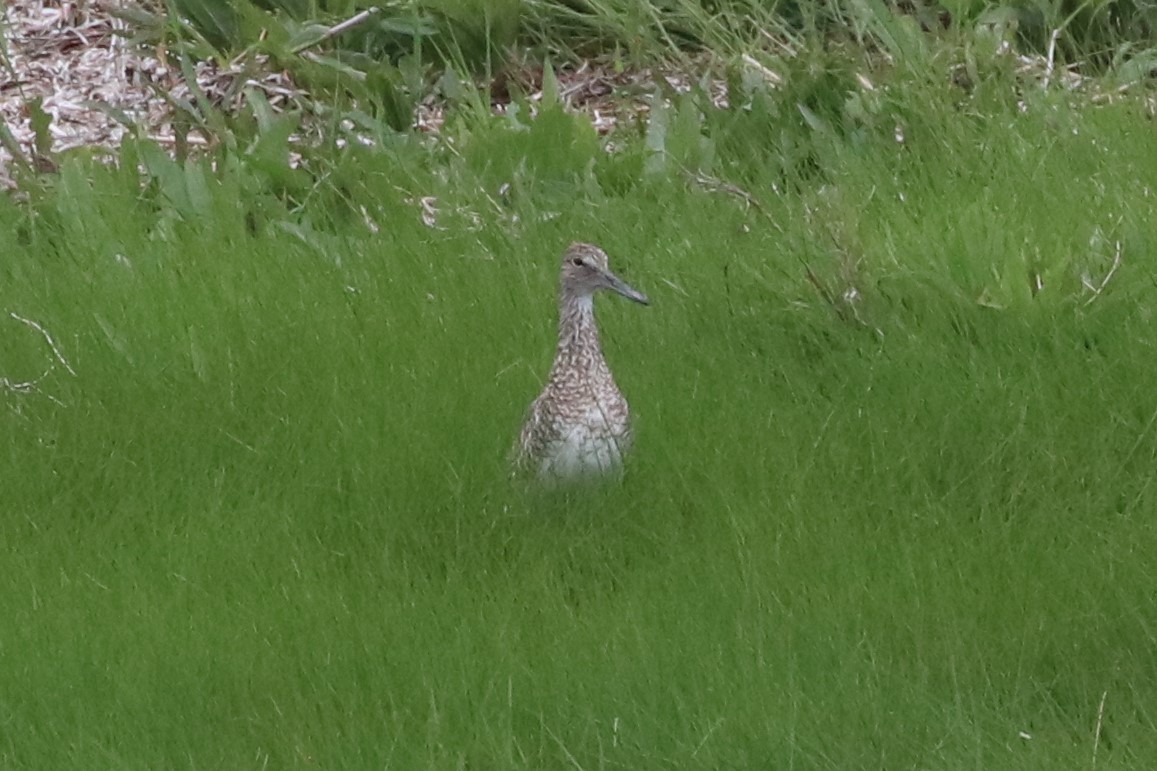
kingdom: Animalia
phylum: Chordata
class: Aves
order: Charadriiformes
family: Scolopacidae
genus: Tringa
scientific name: Tringa semipalmata
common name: Willet
